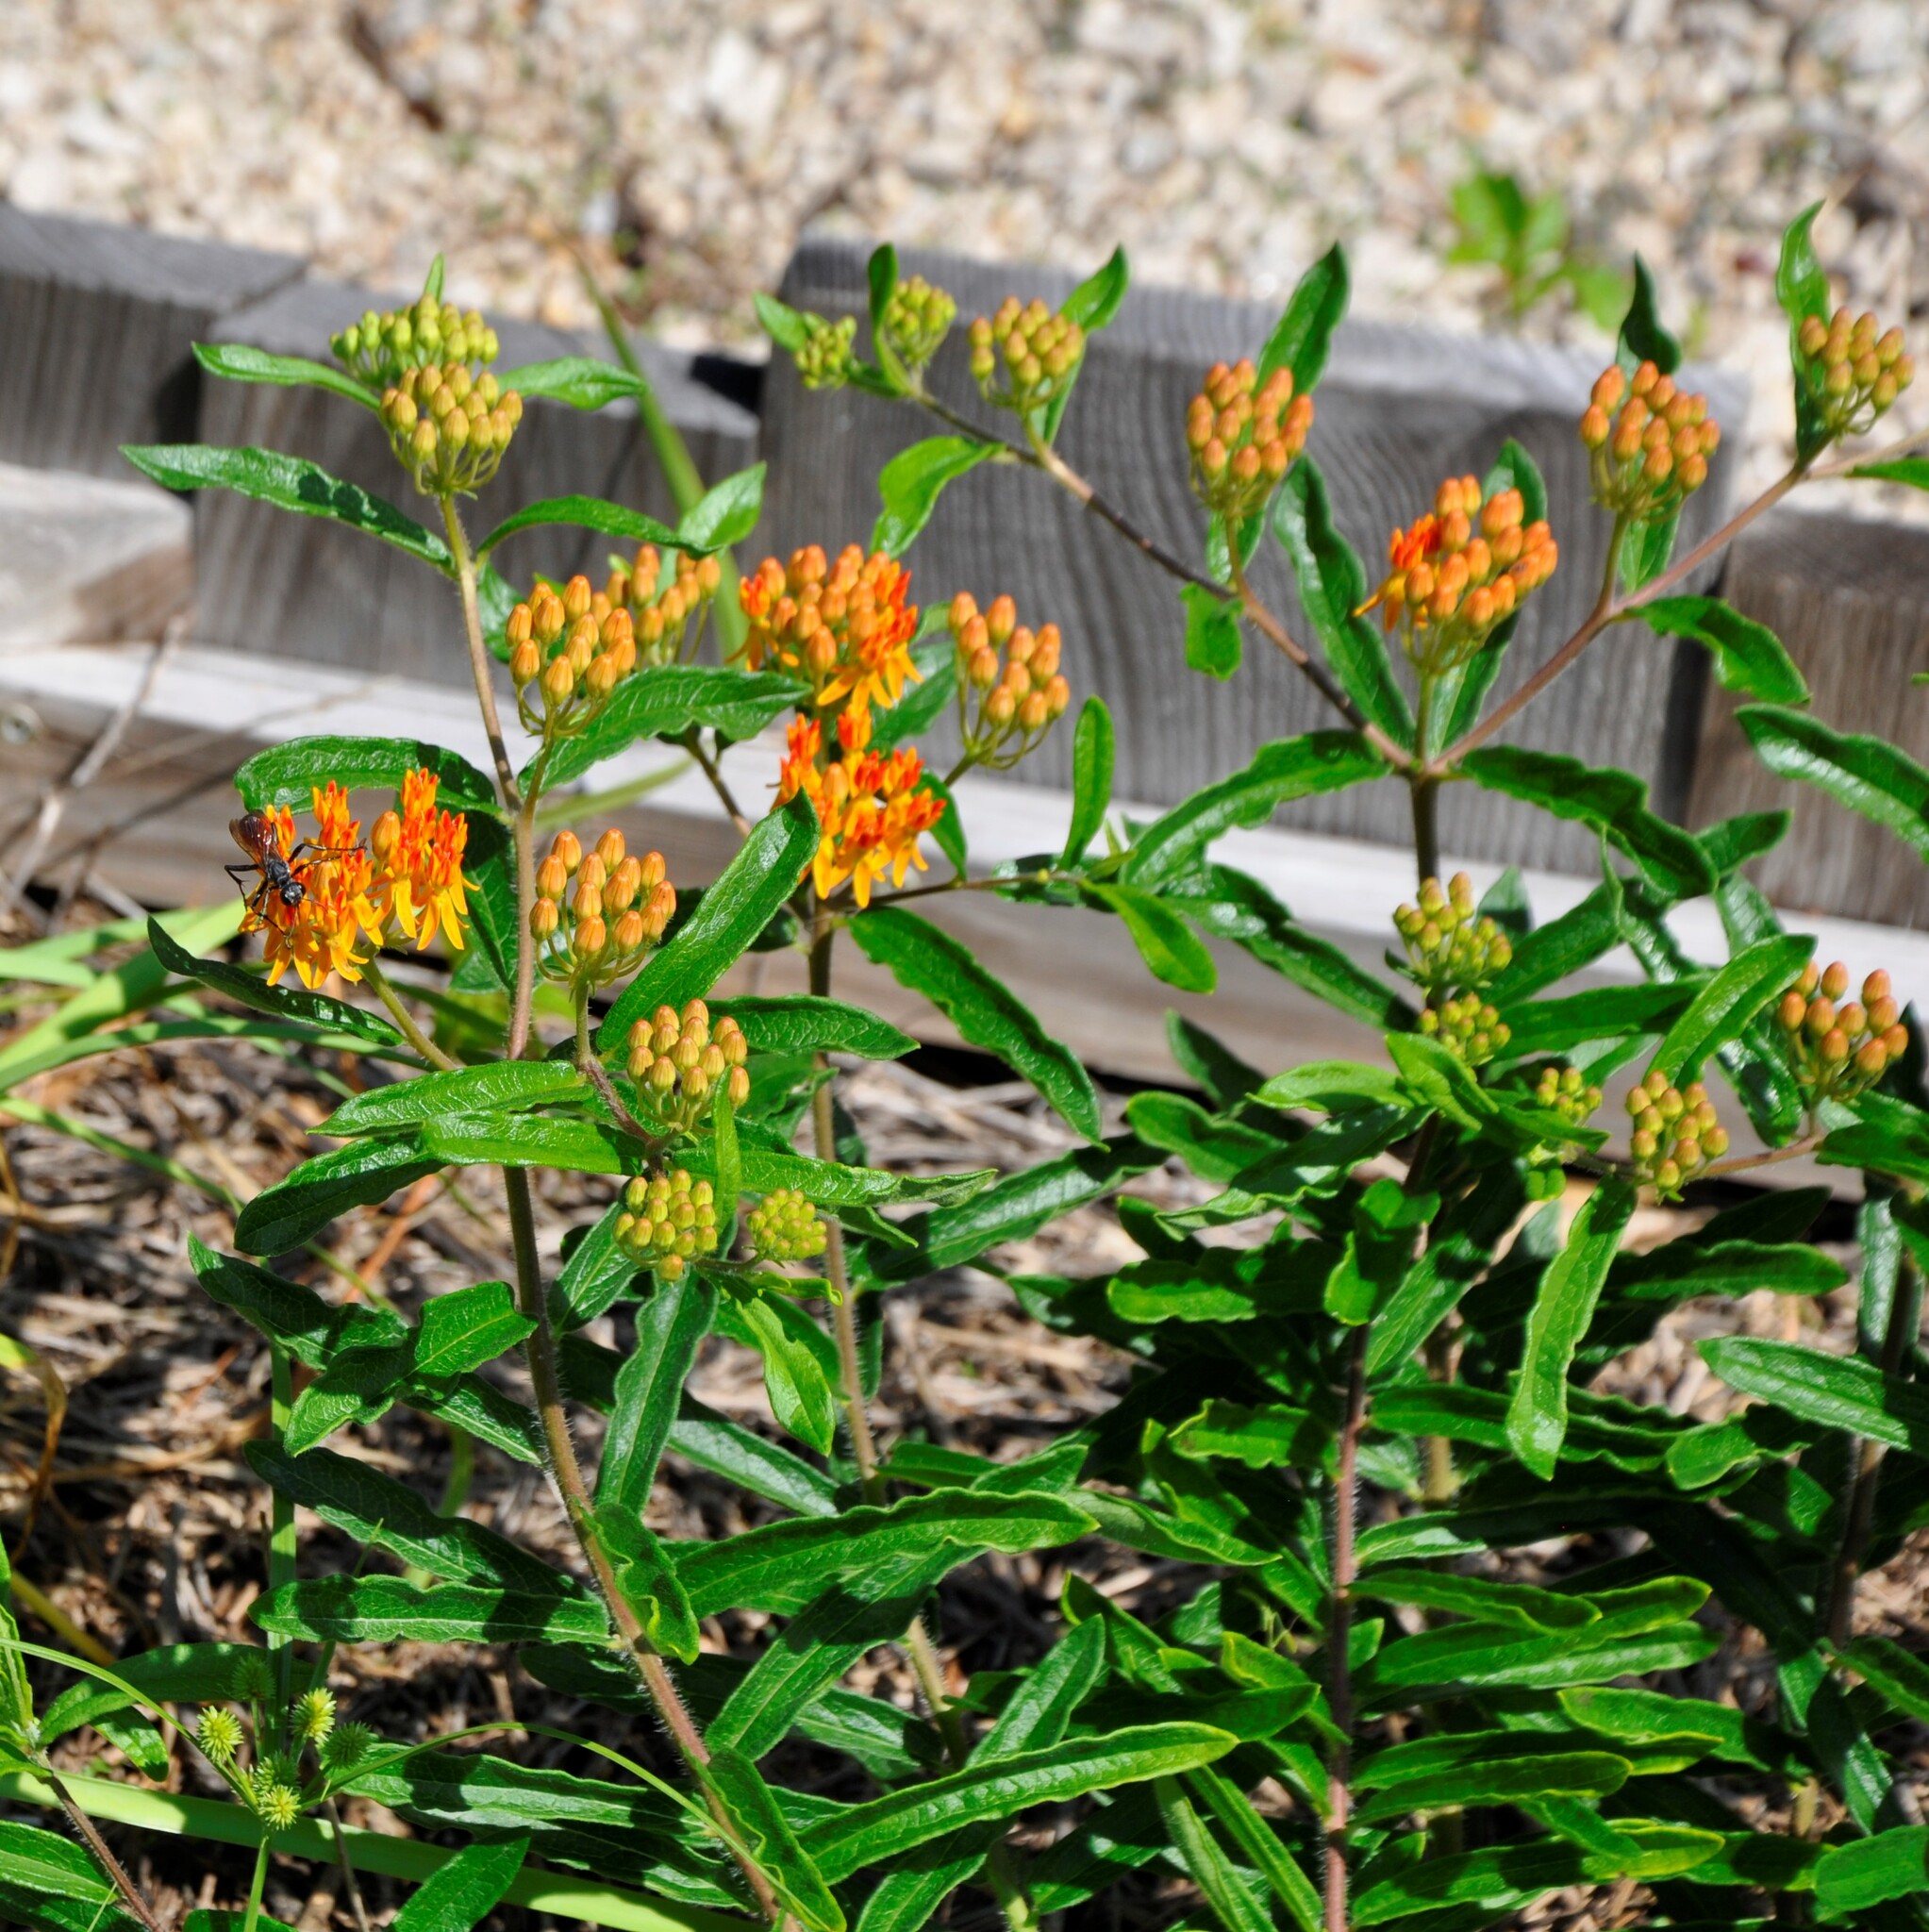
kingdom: Plantae
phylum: Tracheophyta
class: Magnoliopsida
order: Gentianales
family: Apocynaceae
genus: Asclepias
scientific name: Asclepias tuberosa
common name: Butterfly milkweed
